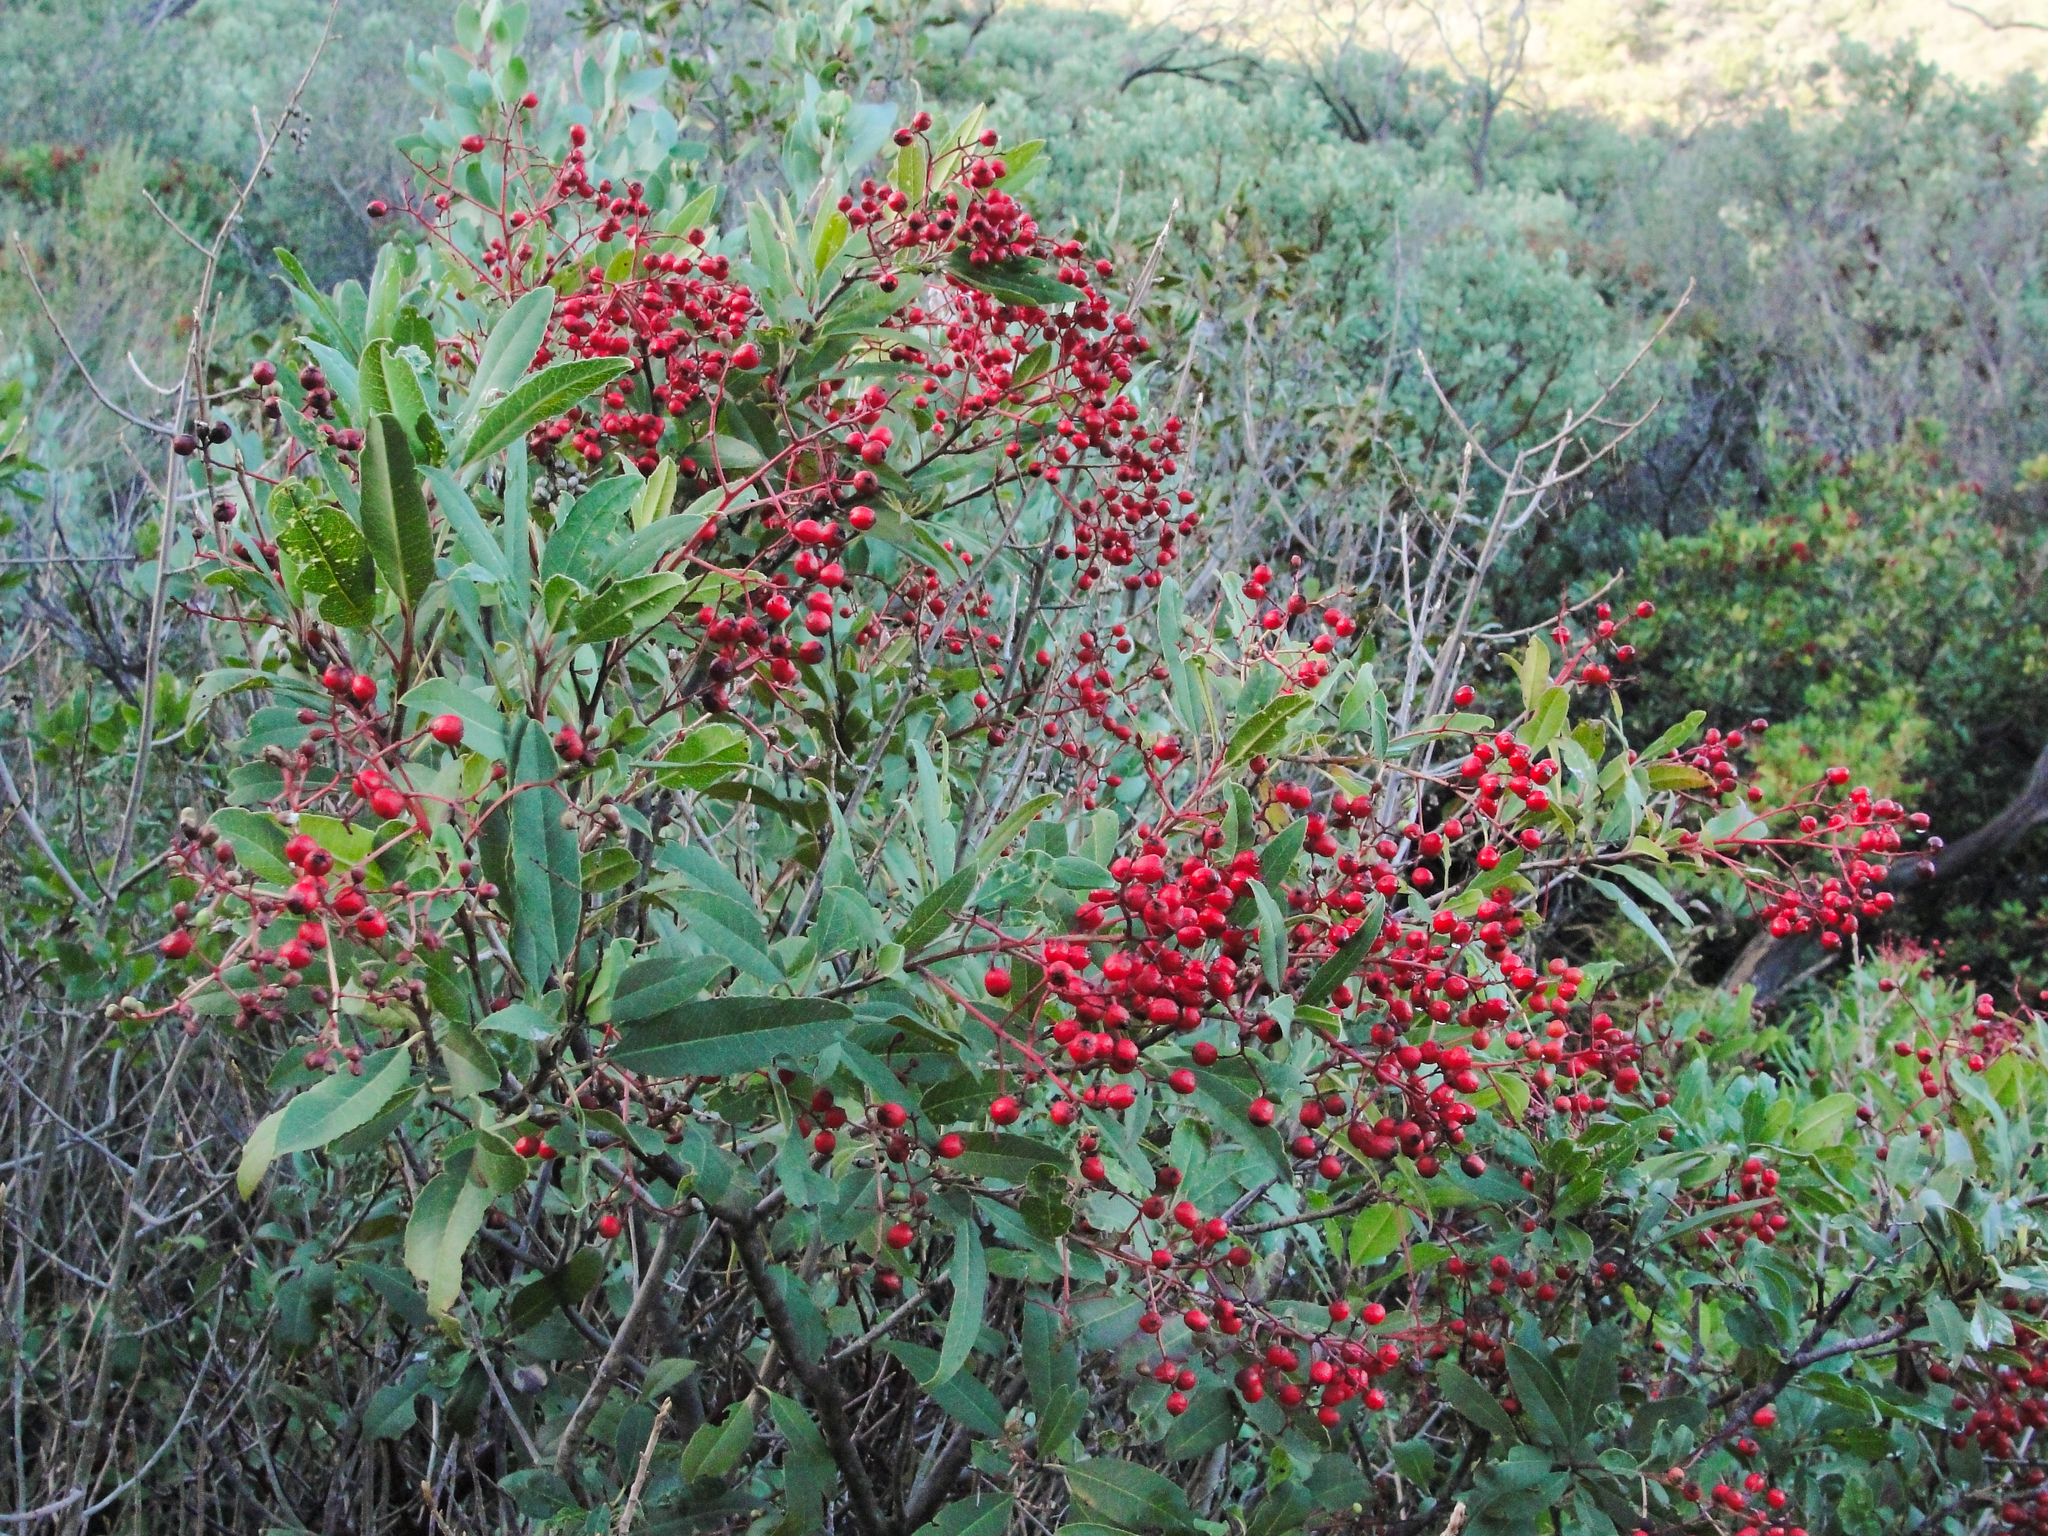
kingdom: Plantae
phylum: Tracheophyta
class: Magnoliopsida
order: Rosales
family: Rosaceae
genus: Heteromeles
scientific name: Heteromeles arbutifolia
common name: California-holly
